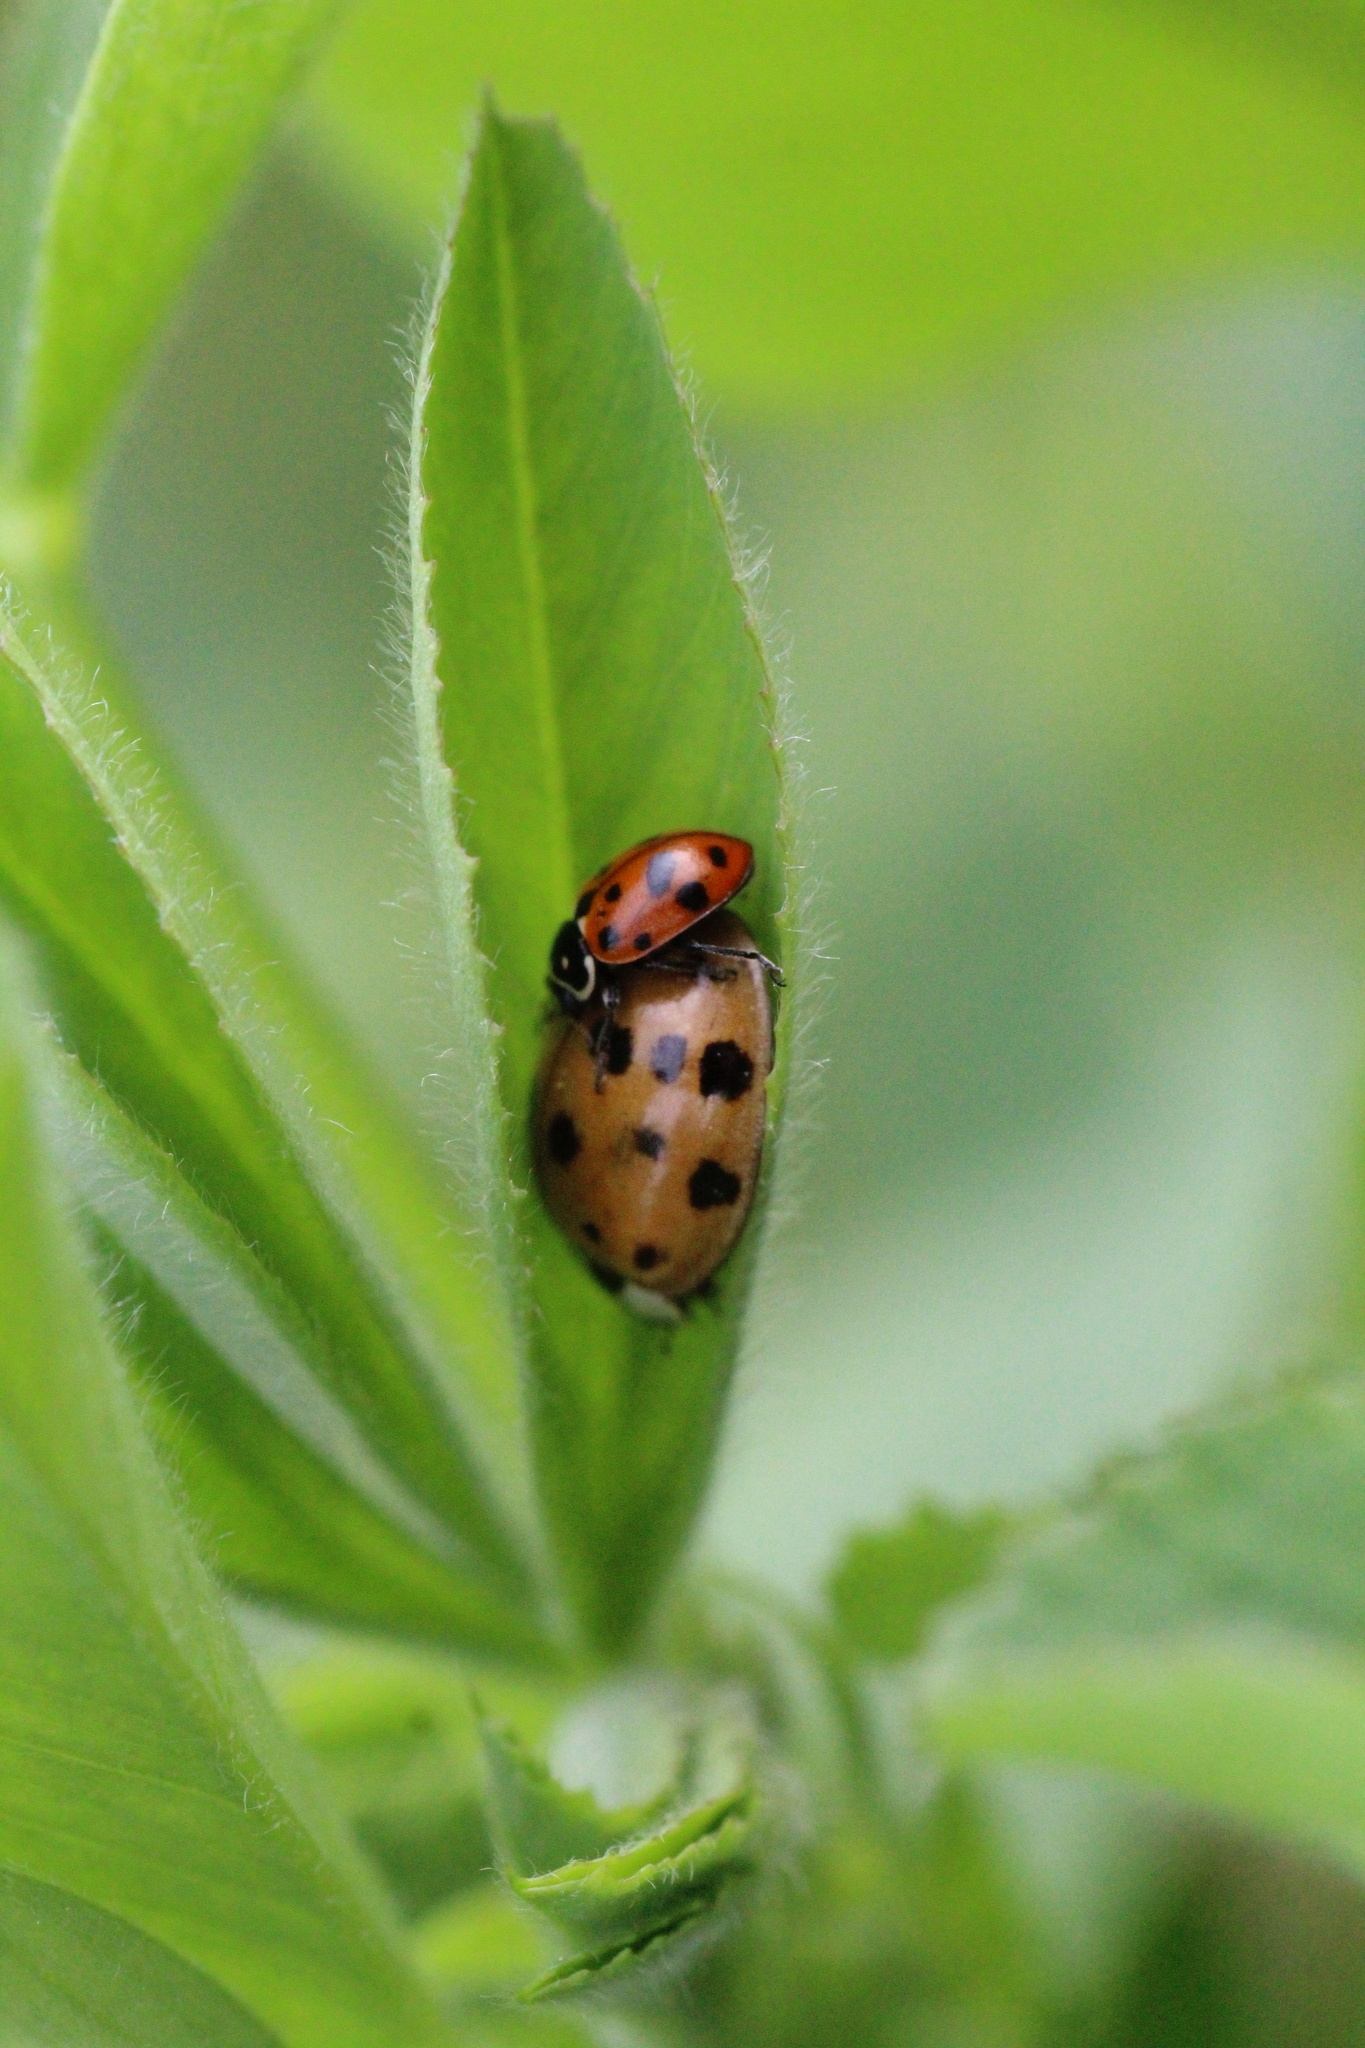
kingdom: Animalia
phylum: Arthropoda
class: Insecta
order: Coleoptera
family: Coccinellidae
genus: Hippodamia
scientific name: Hippodamia variegata
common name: Ladybird beetle
